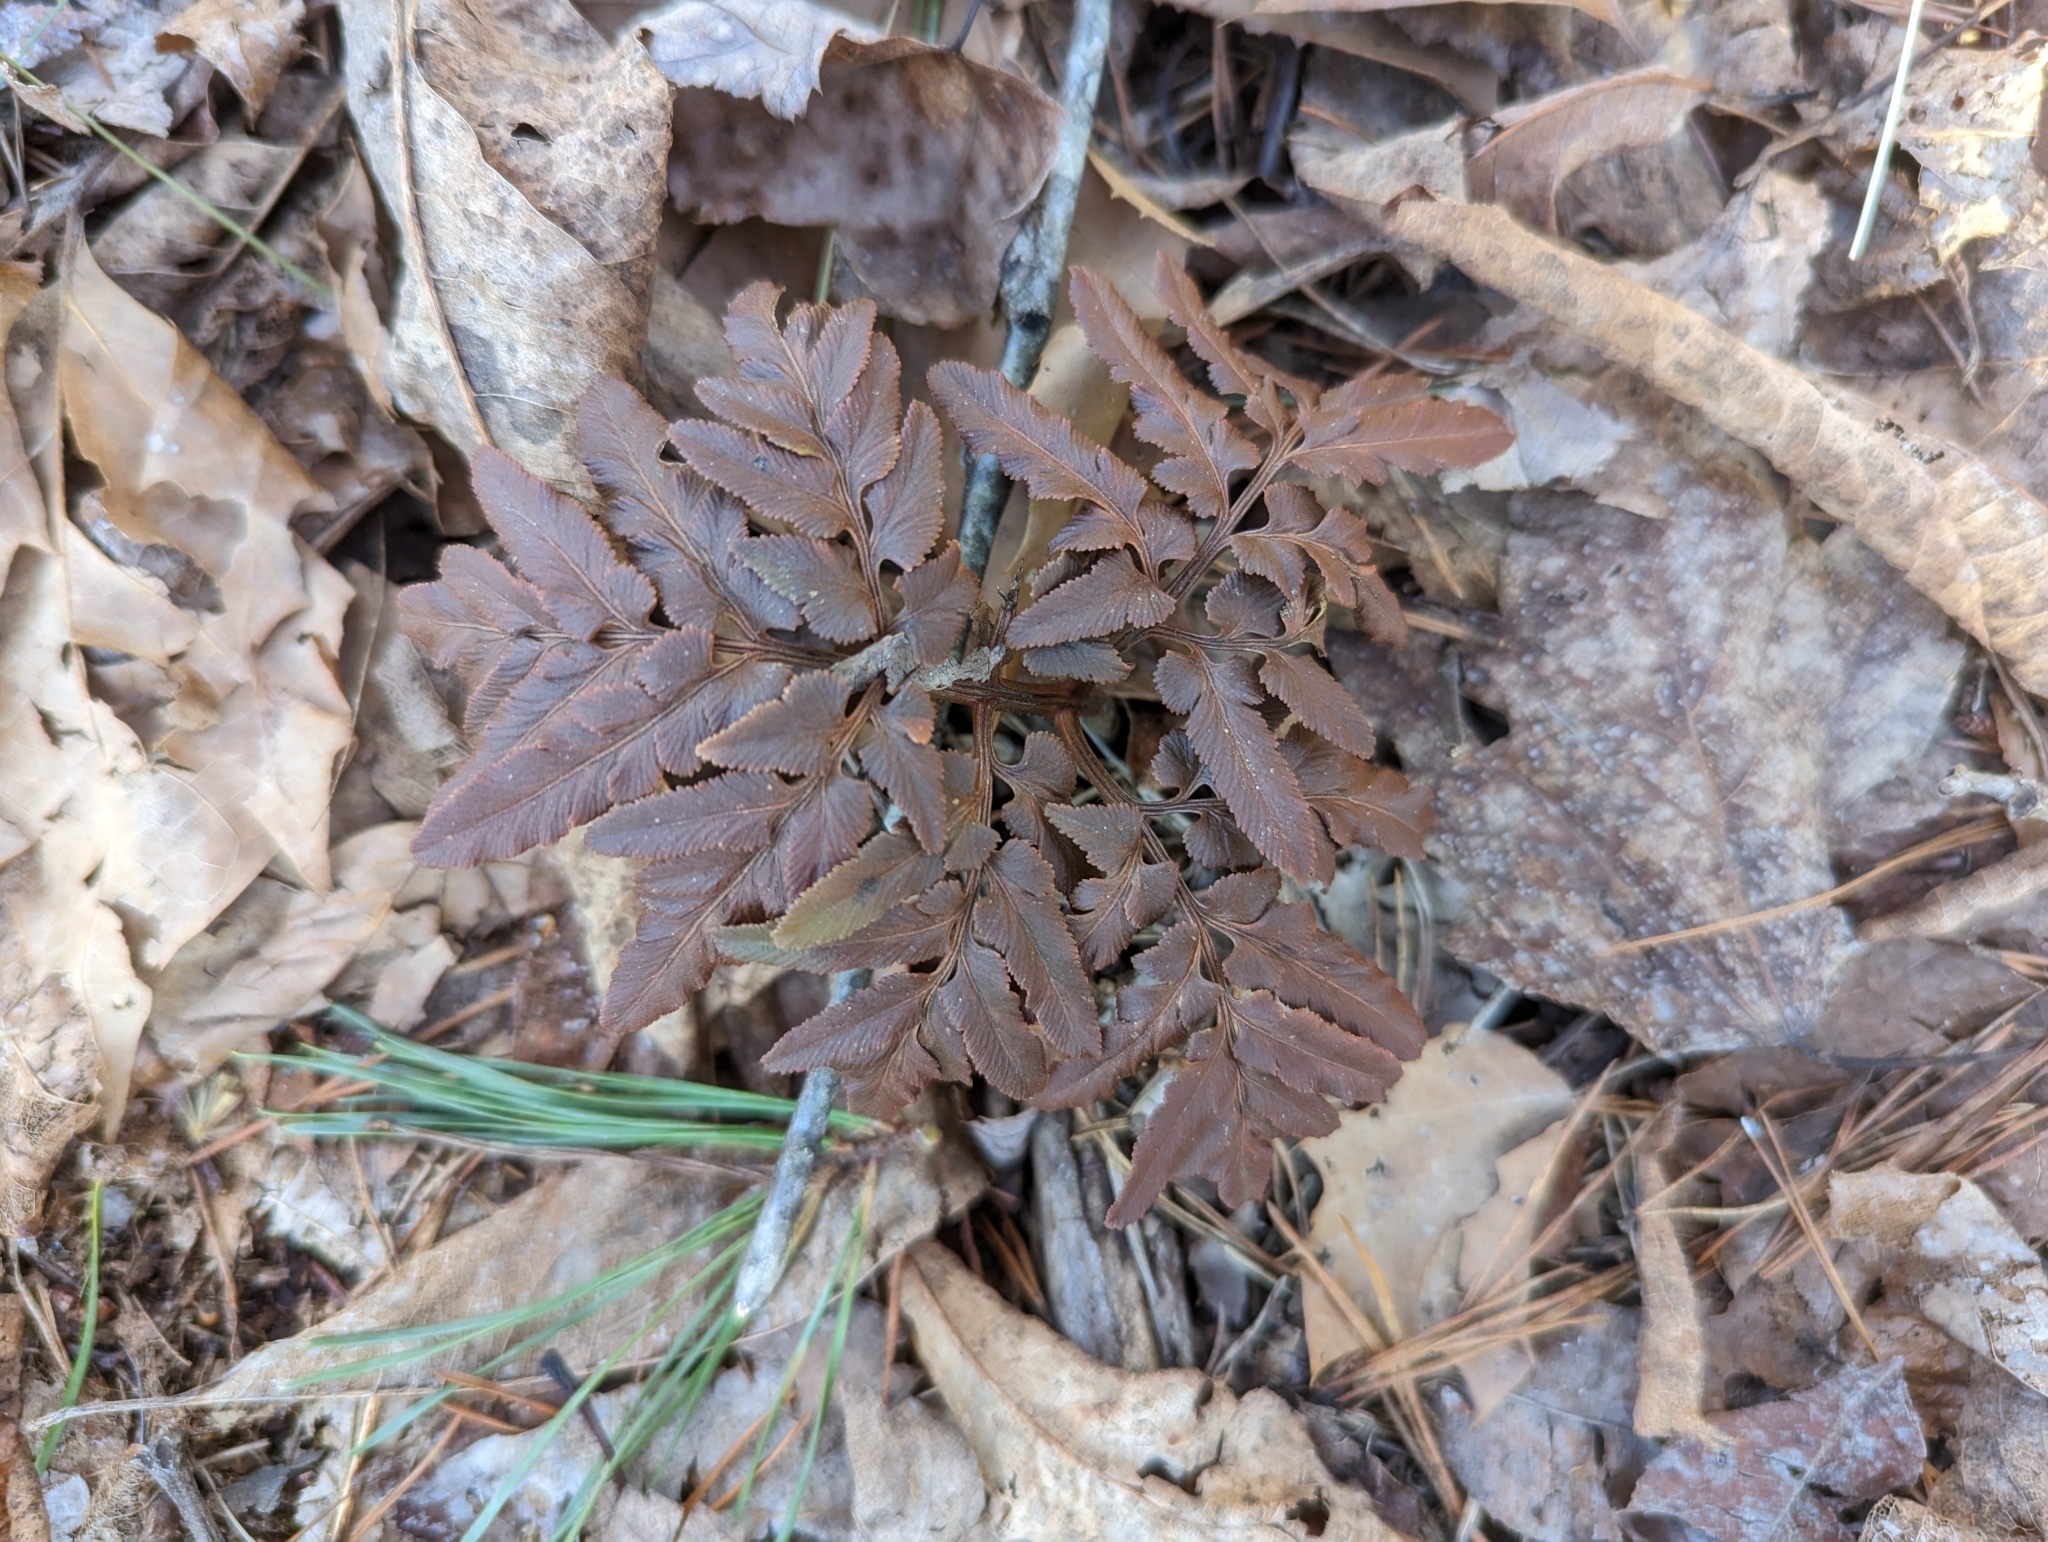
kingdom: Plantae
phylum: Tracheophyta
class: Polypodiopsida
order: Ophioglossales
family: Ophioglossaceae
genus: Sceptridium
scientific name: Sceptridium dissectum
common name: Cut-leaved grapefern
